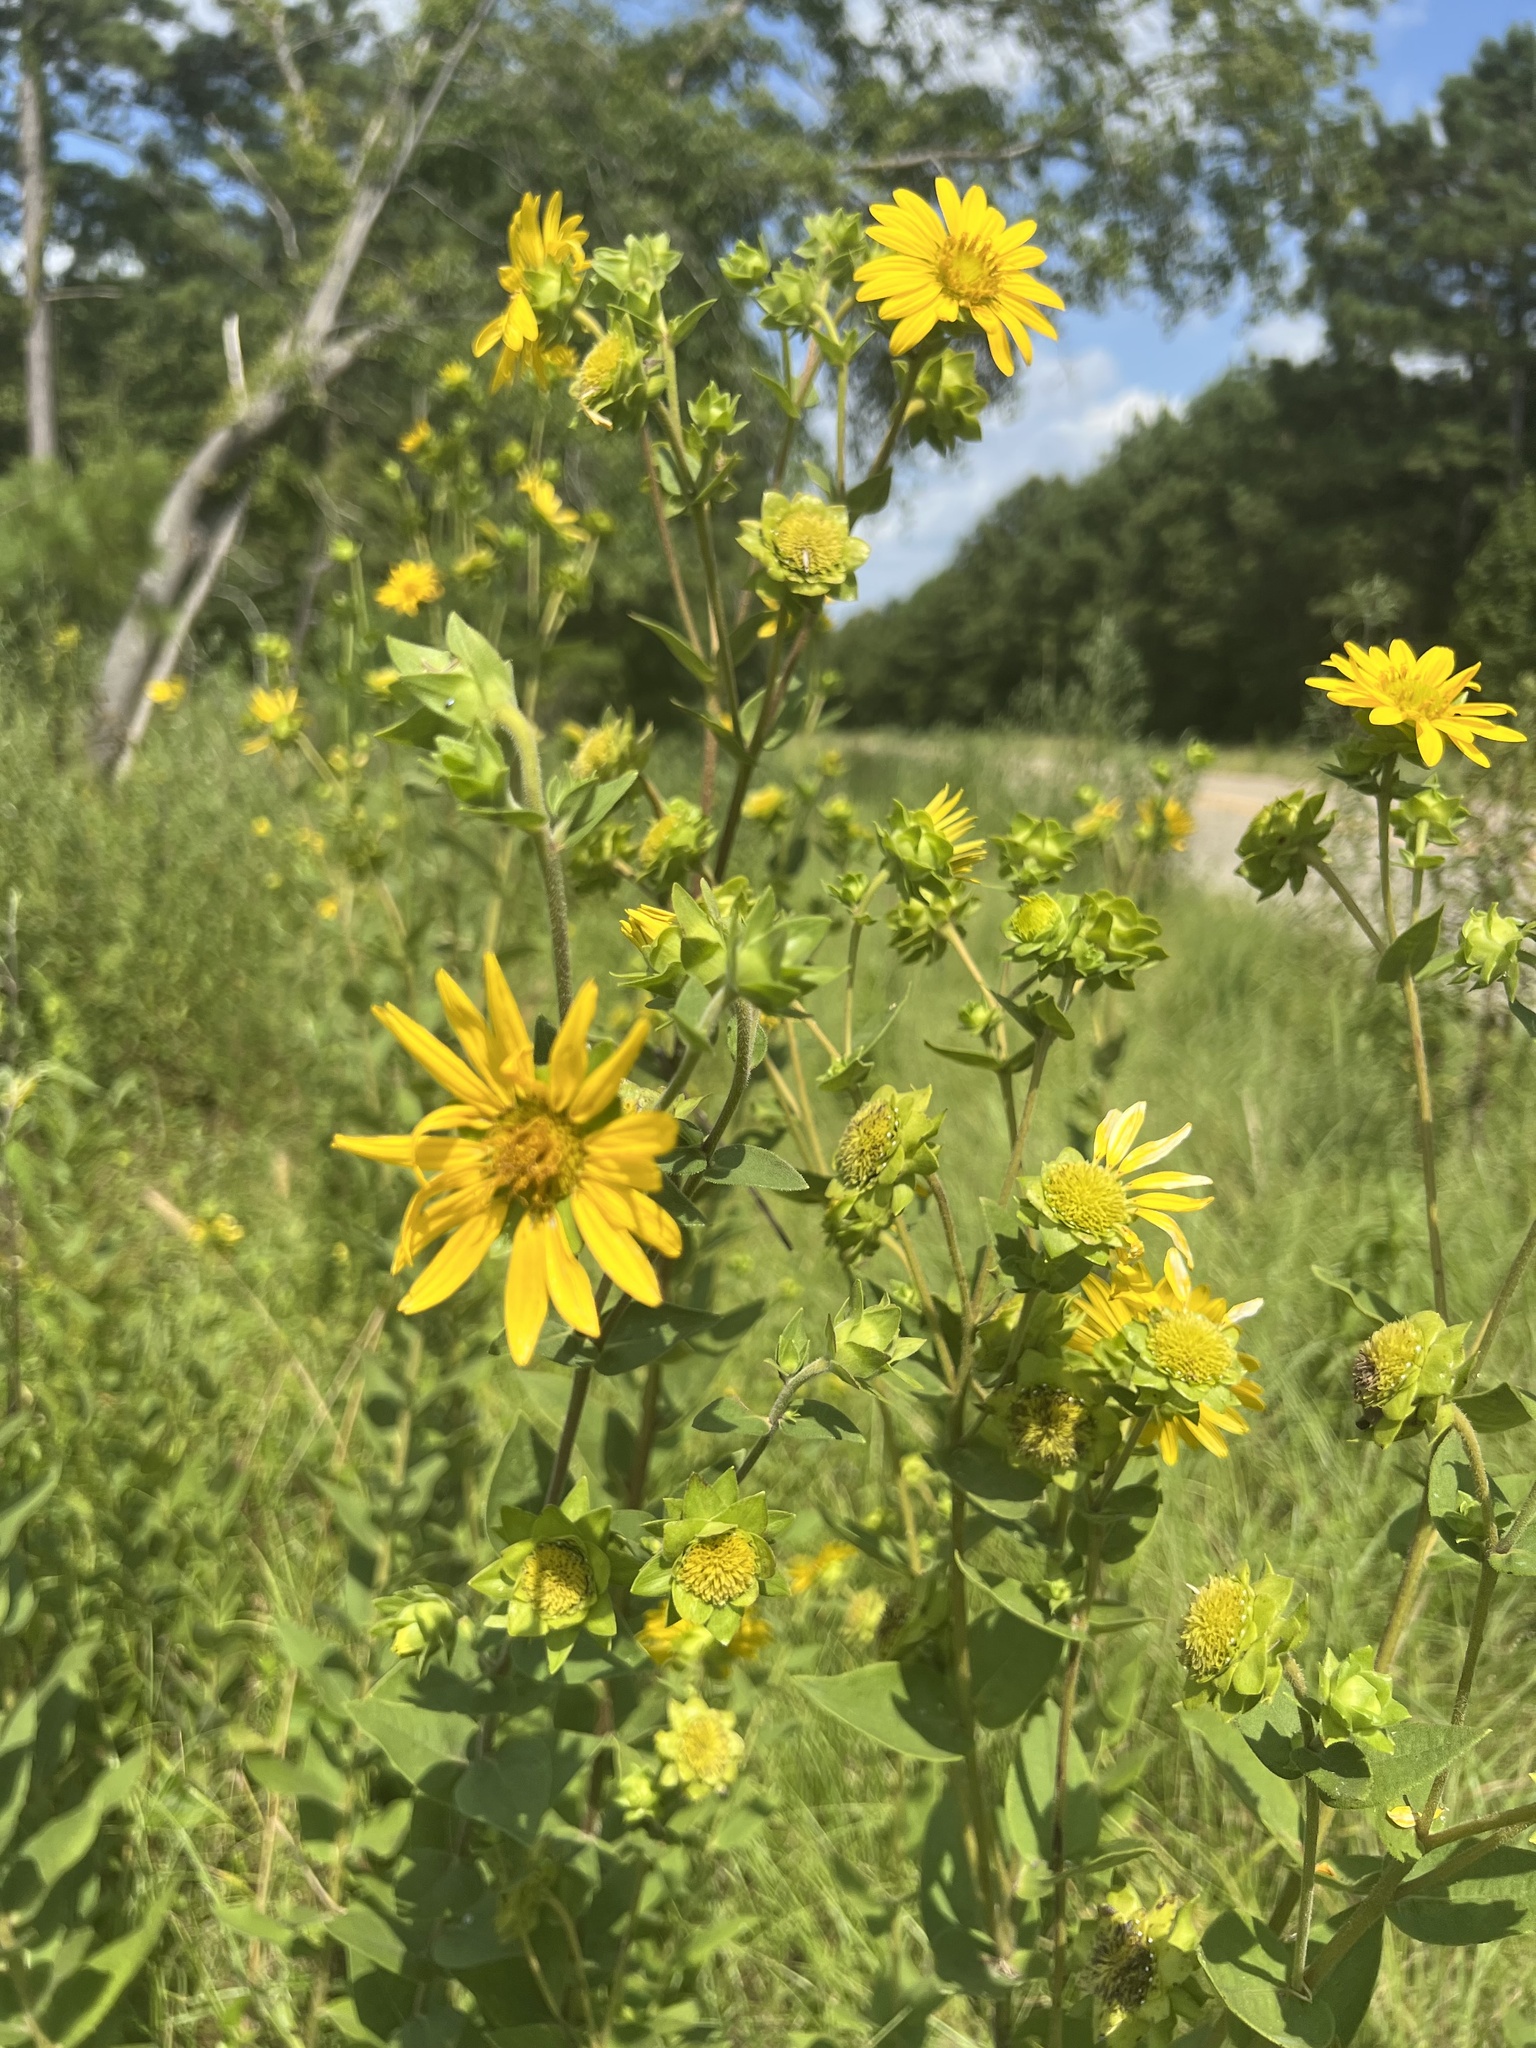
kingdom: Plantae
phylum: Tracheophyta
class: Magnoliopsida
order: Asterales
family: Asteraceae
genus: Silphium
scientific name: Silphium integrifolium
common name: Whole-leaf rosinweed
